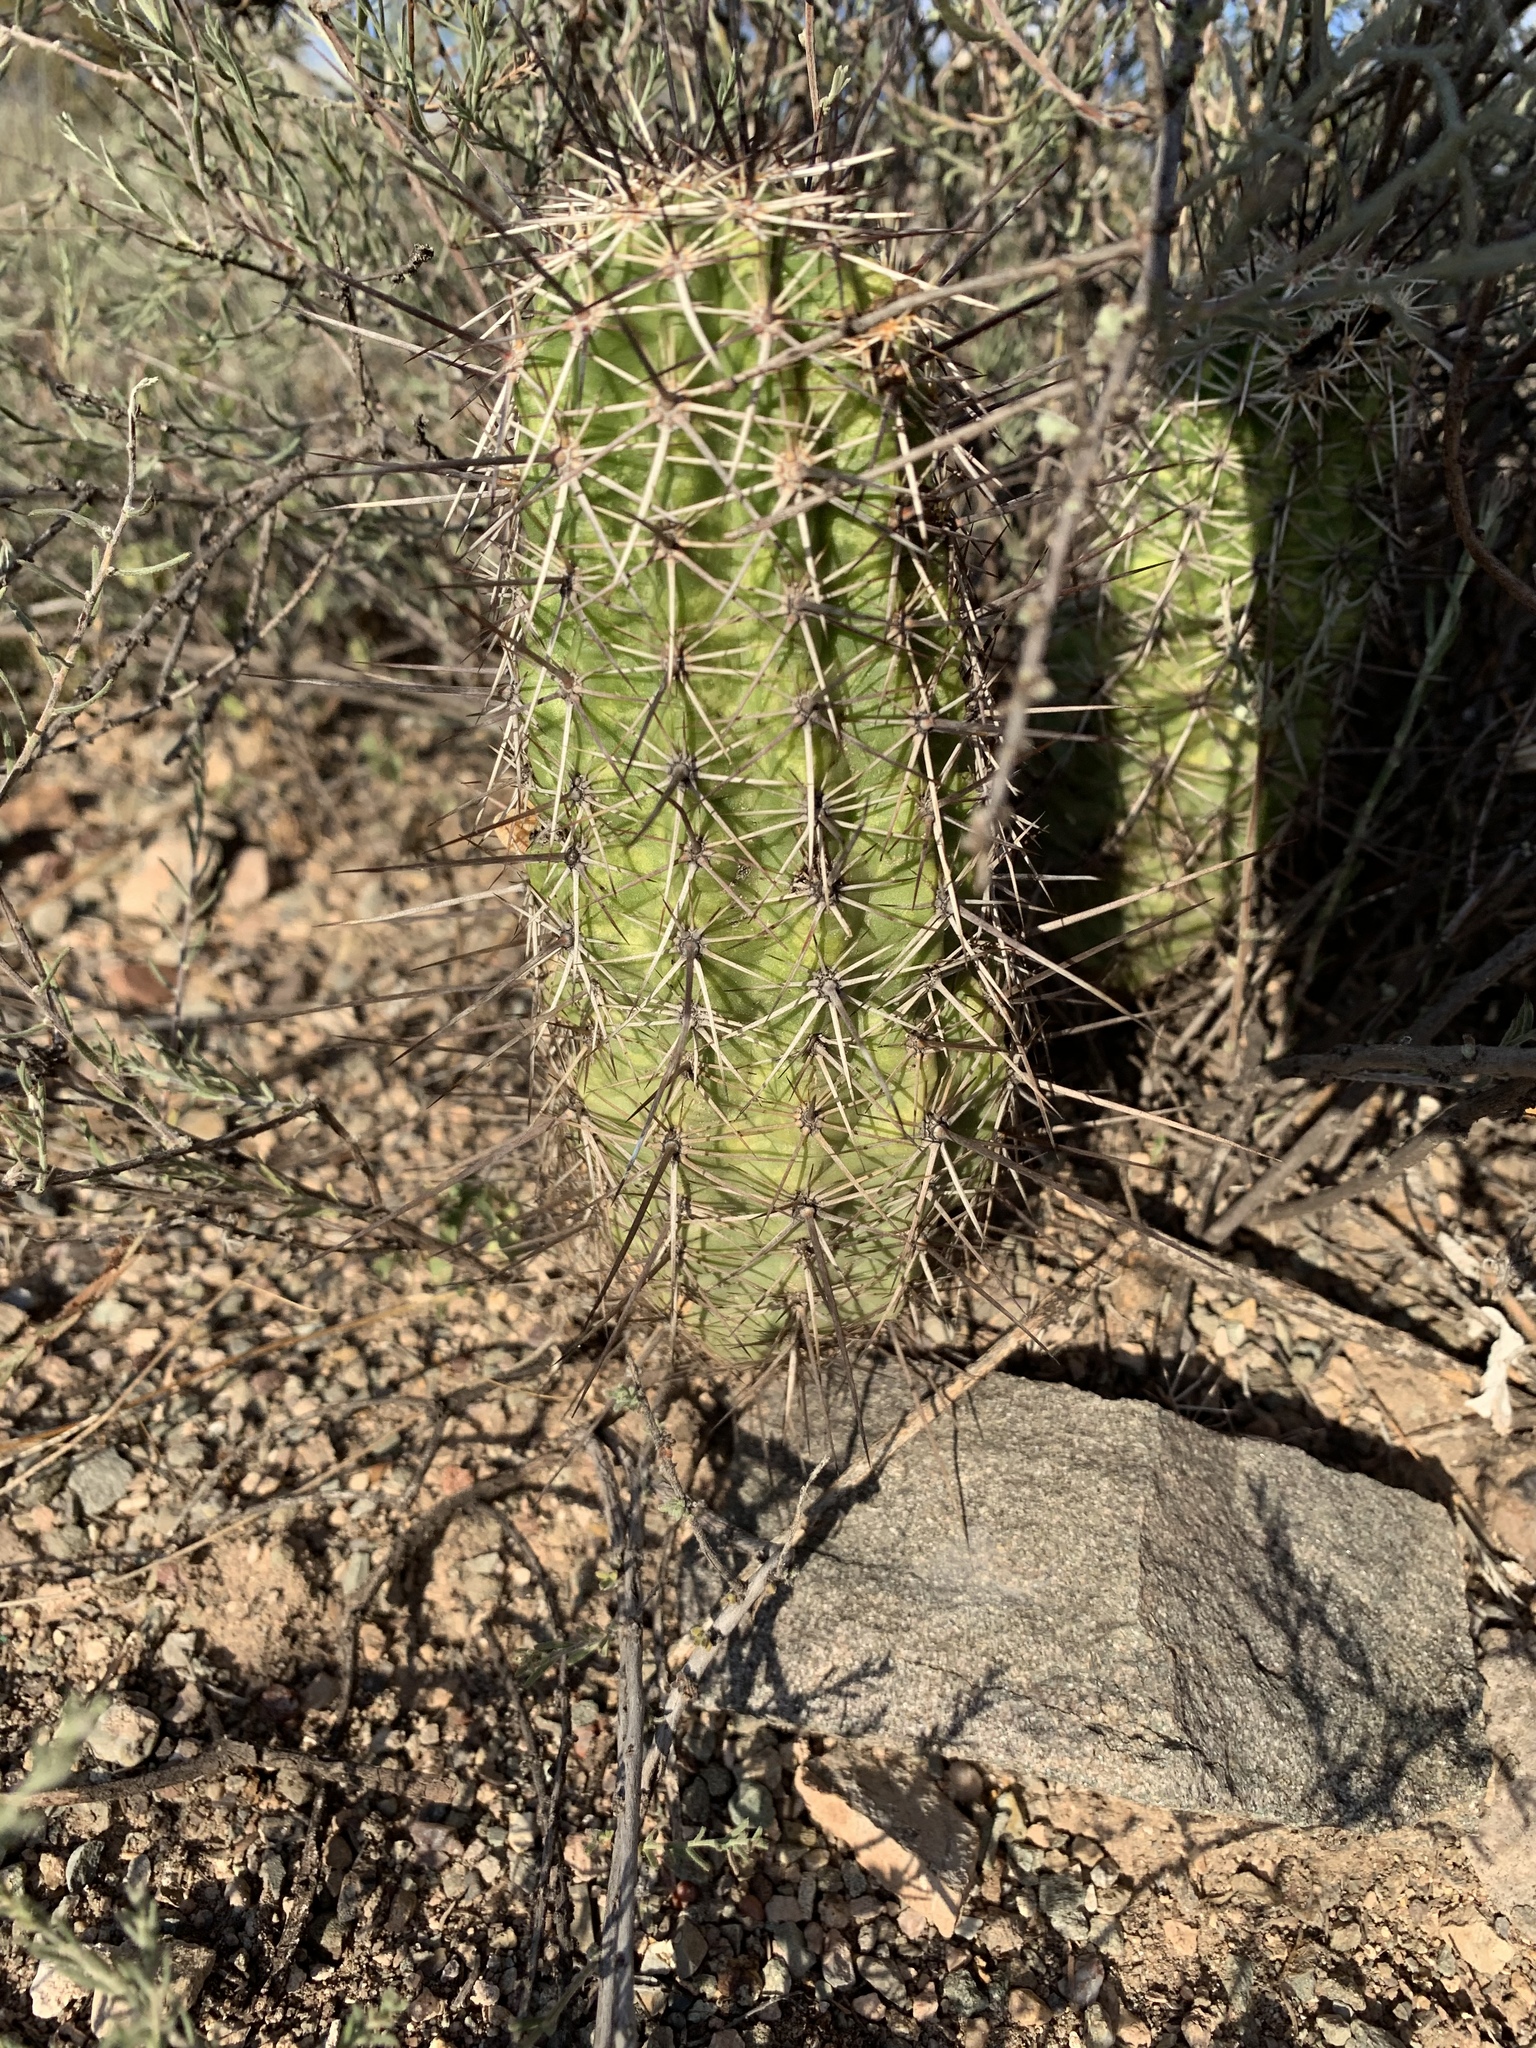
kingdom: Plantae
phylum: Tracheophyta
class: Magnoliopsida
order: Caryophyllales
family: Cactaceae
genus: Echinocereus
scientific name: Echinocereus fasciculatus
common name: Bundle hedgehog
